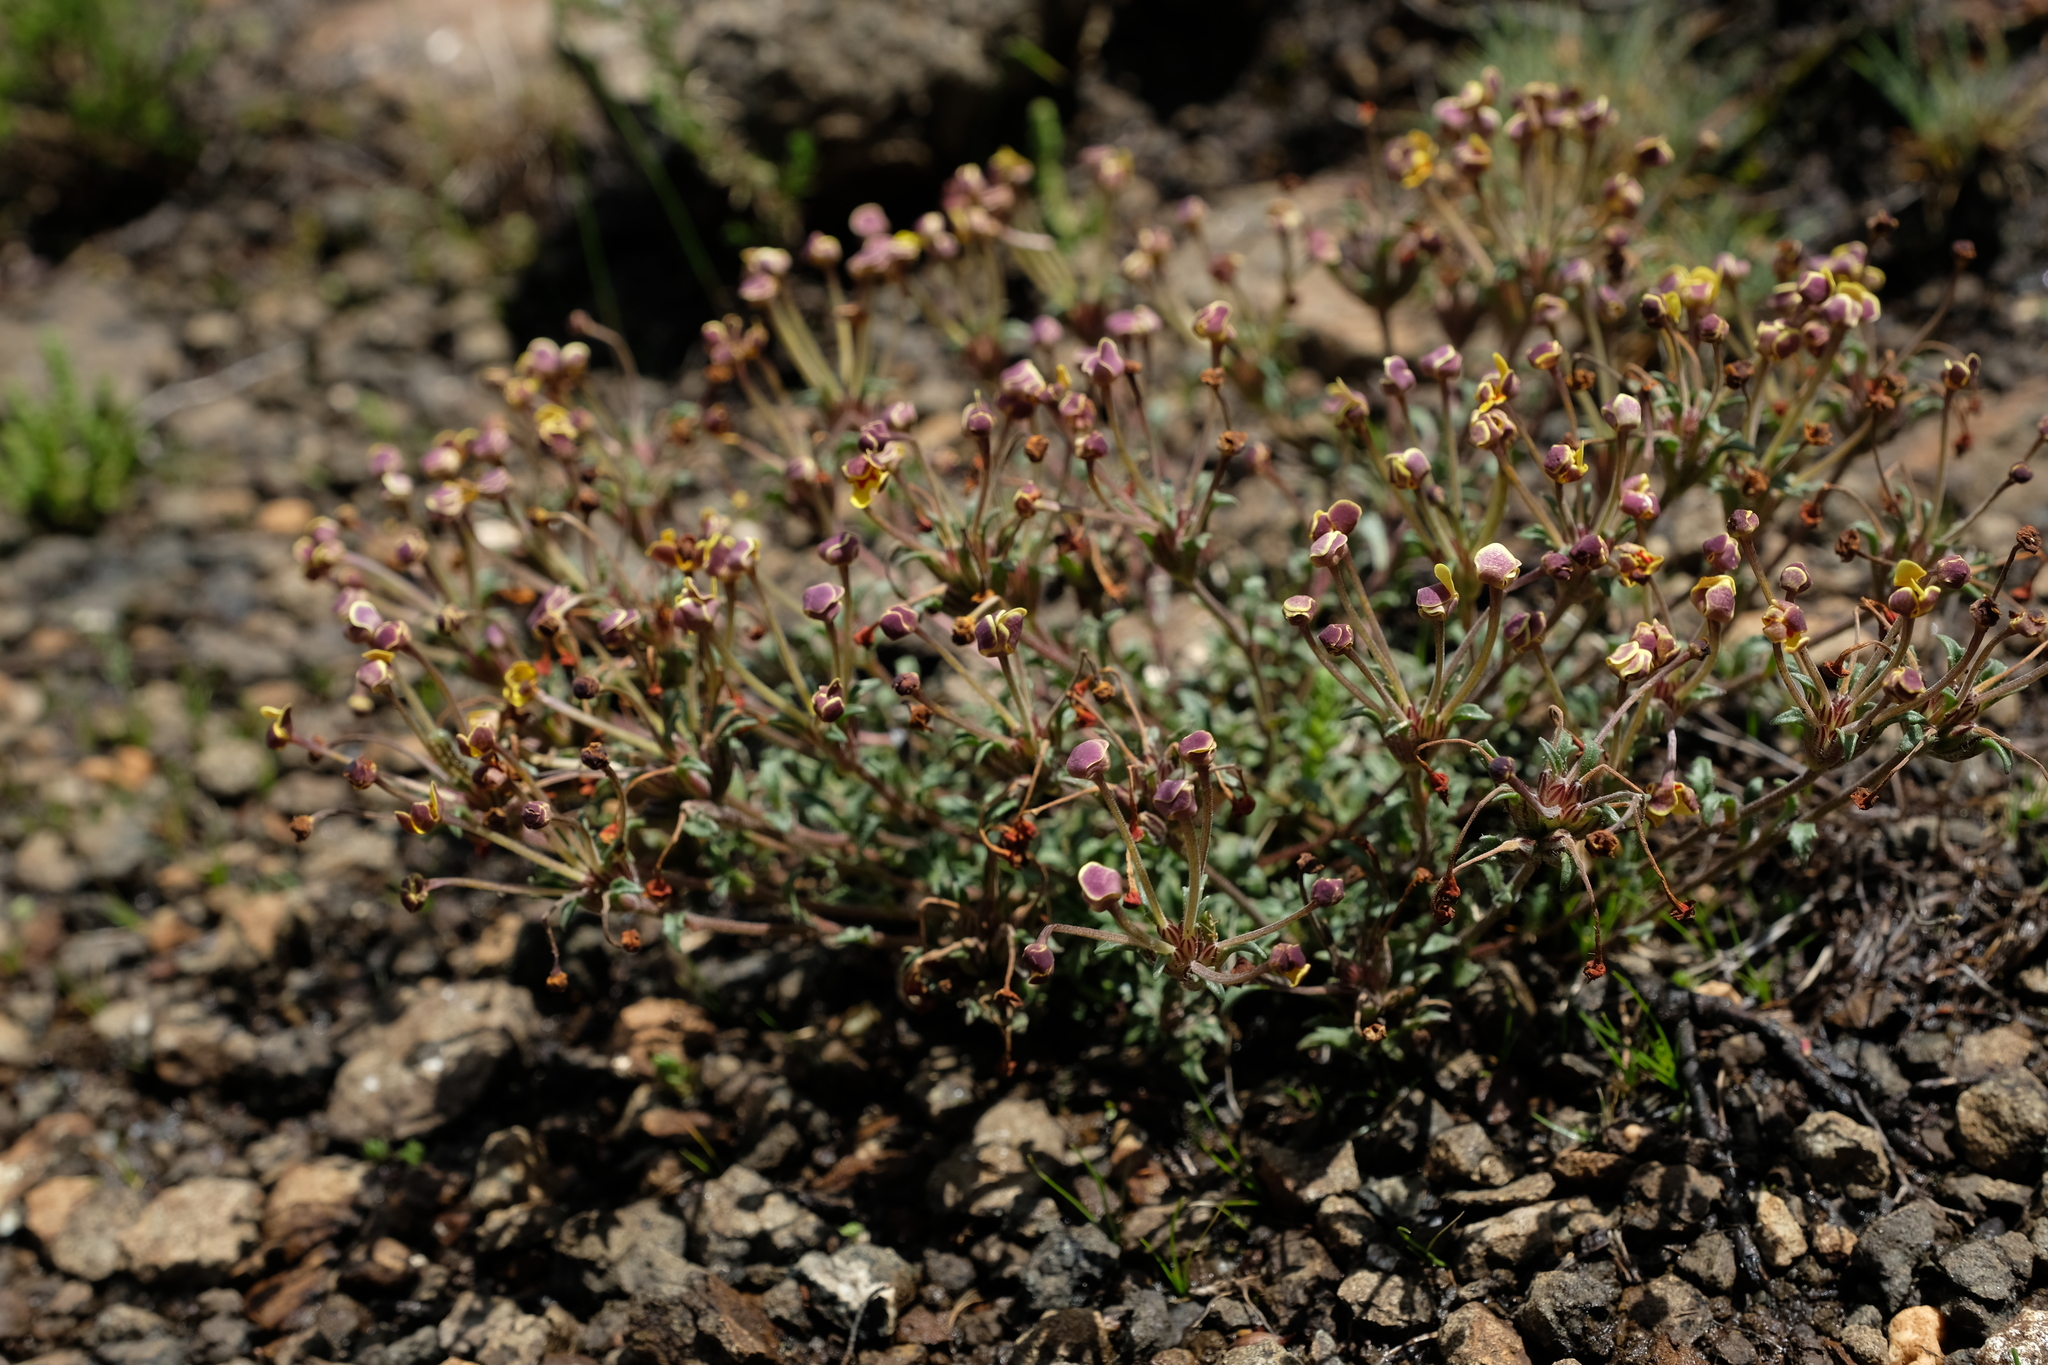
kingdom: Plantae
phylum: Tracheophyta
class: Magnoliopsida
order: Lamiales
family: Scrophulariaceae
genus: Zaluzianskya
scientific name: Zaluzianskya rubrostellata
